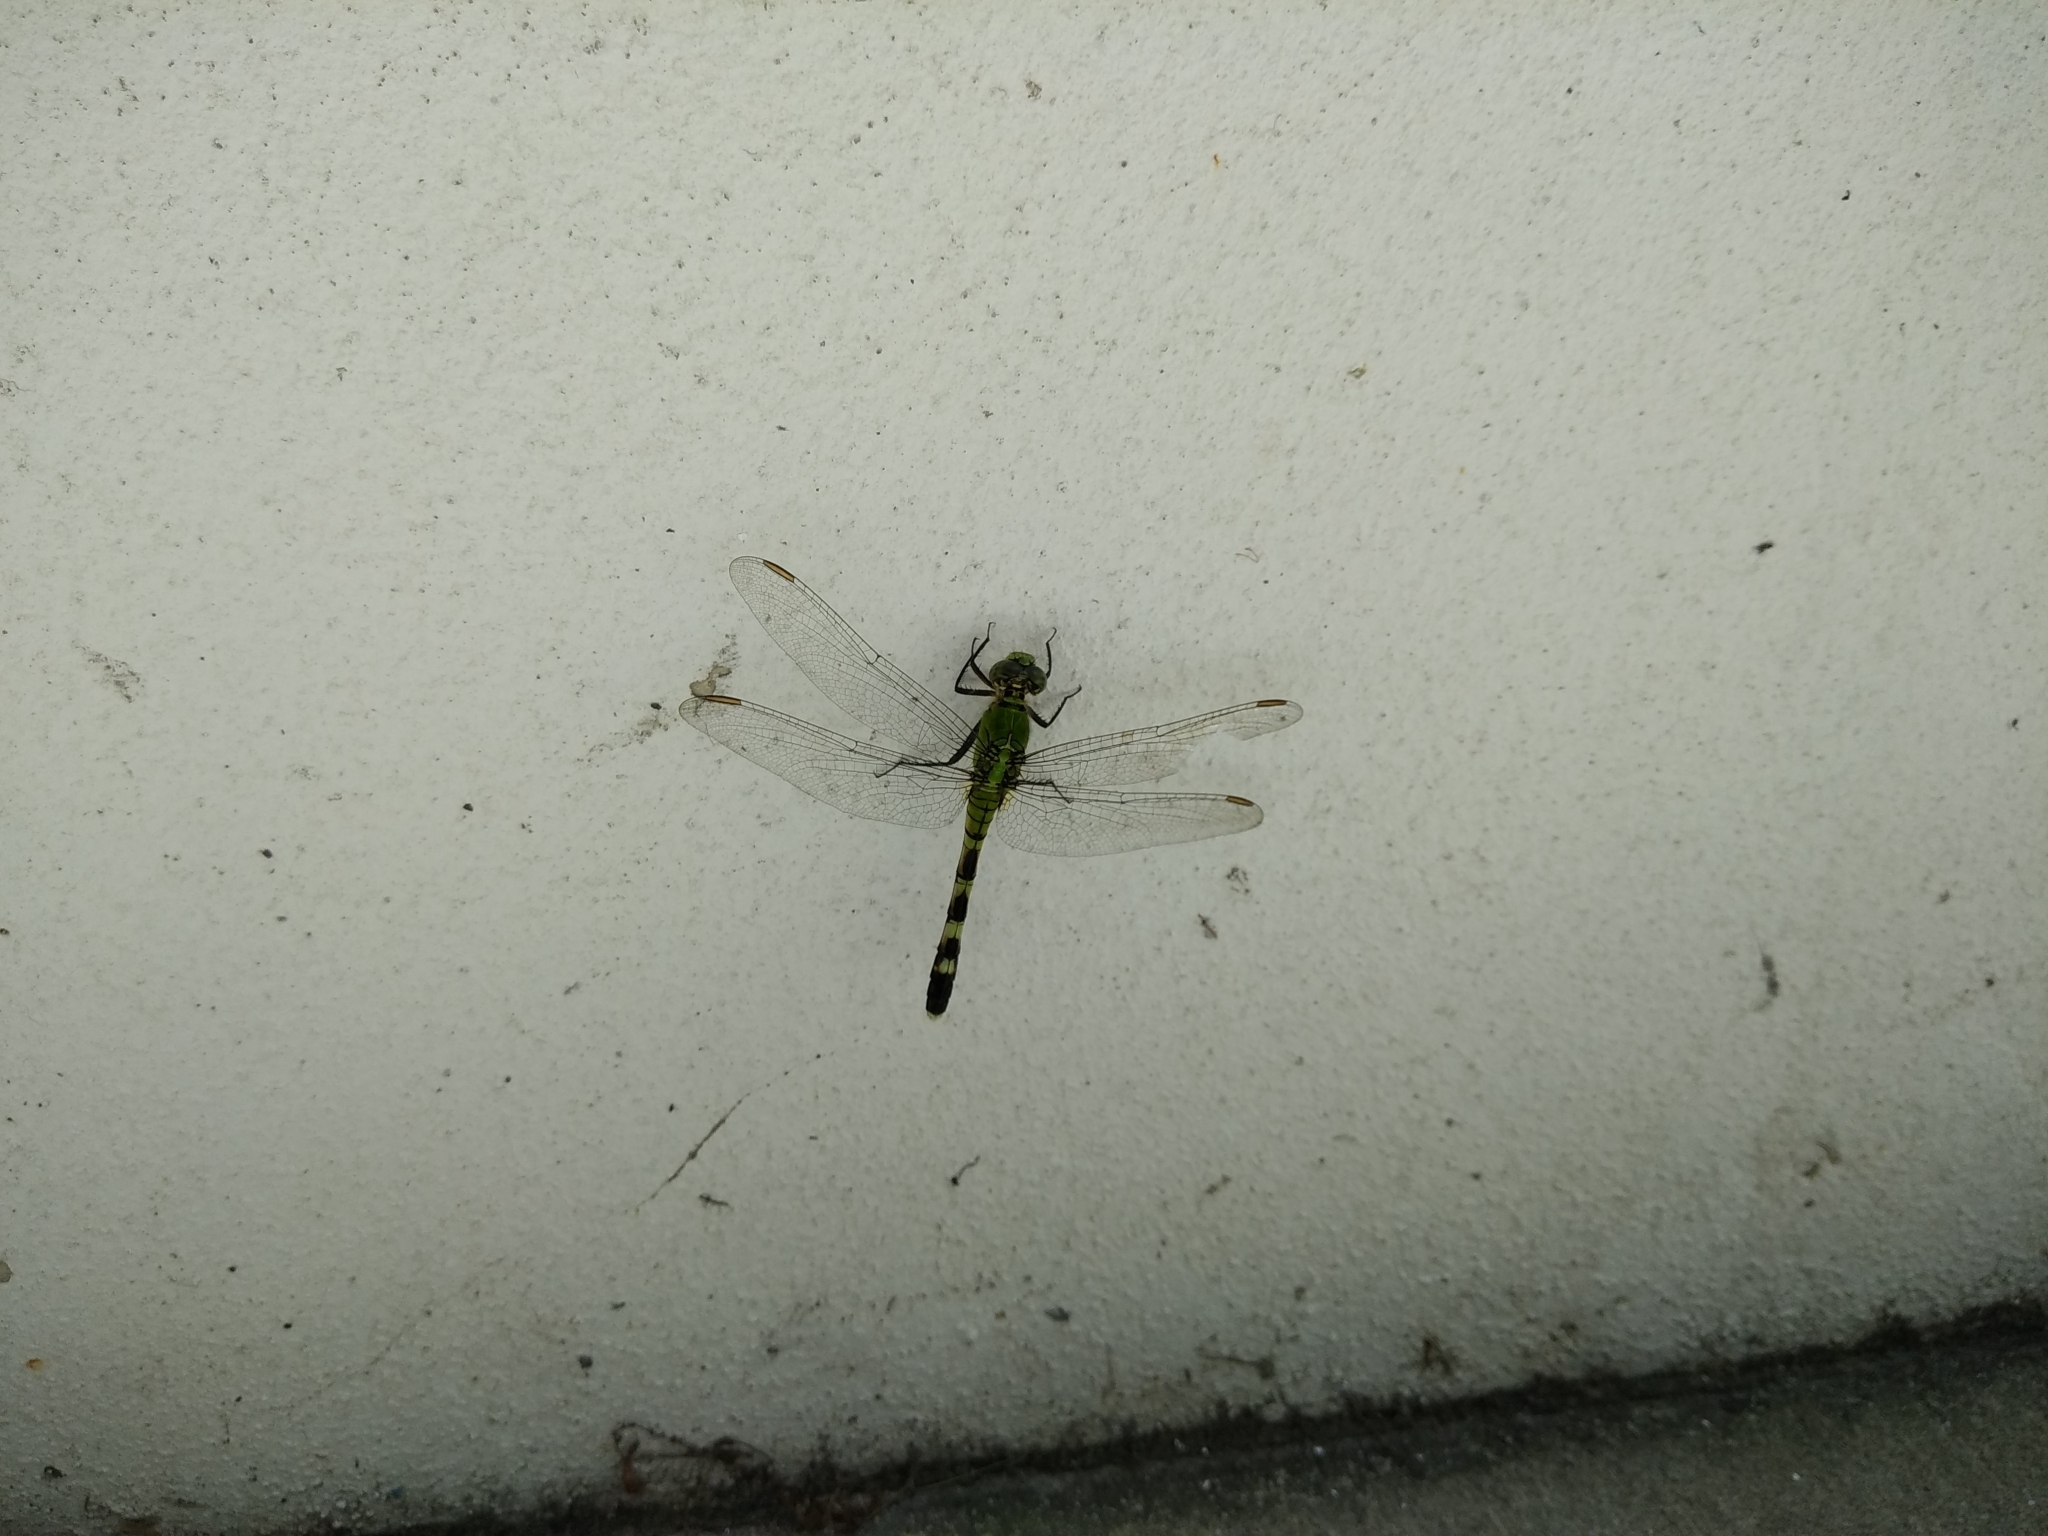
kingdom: Animalia
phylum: Arthropoda
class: Insecta
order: Odonata
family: Libellulidae
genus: Erythemis
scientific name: Erythemis simplicicollis
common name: Eastern pondhawk
